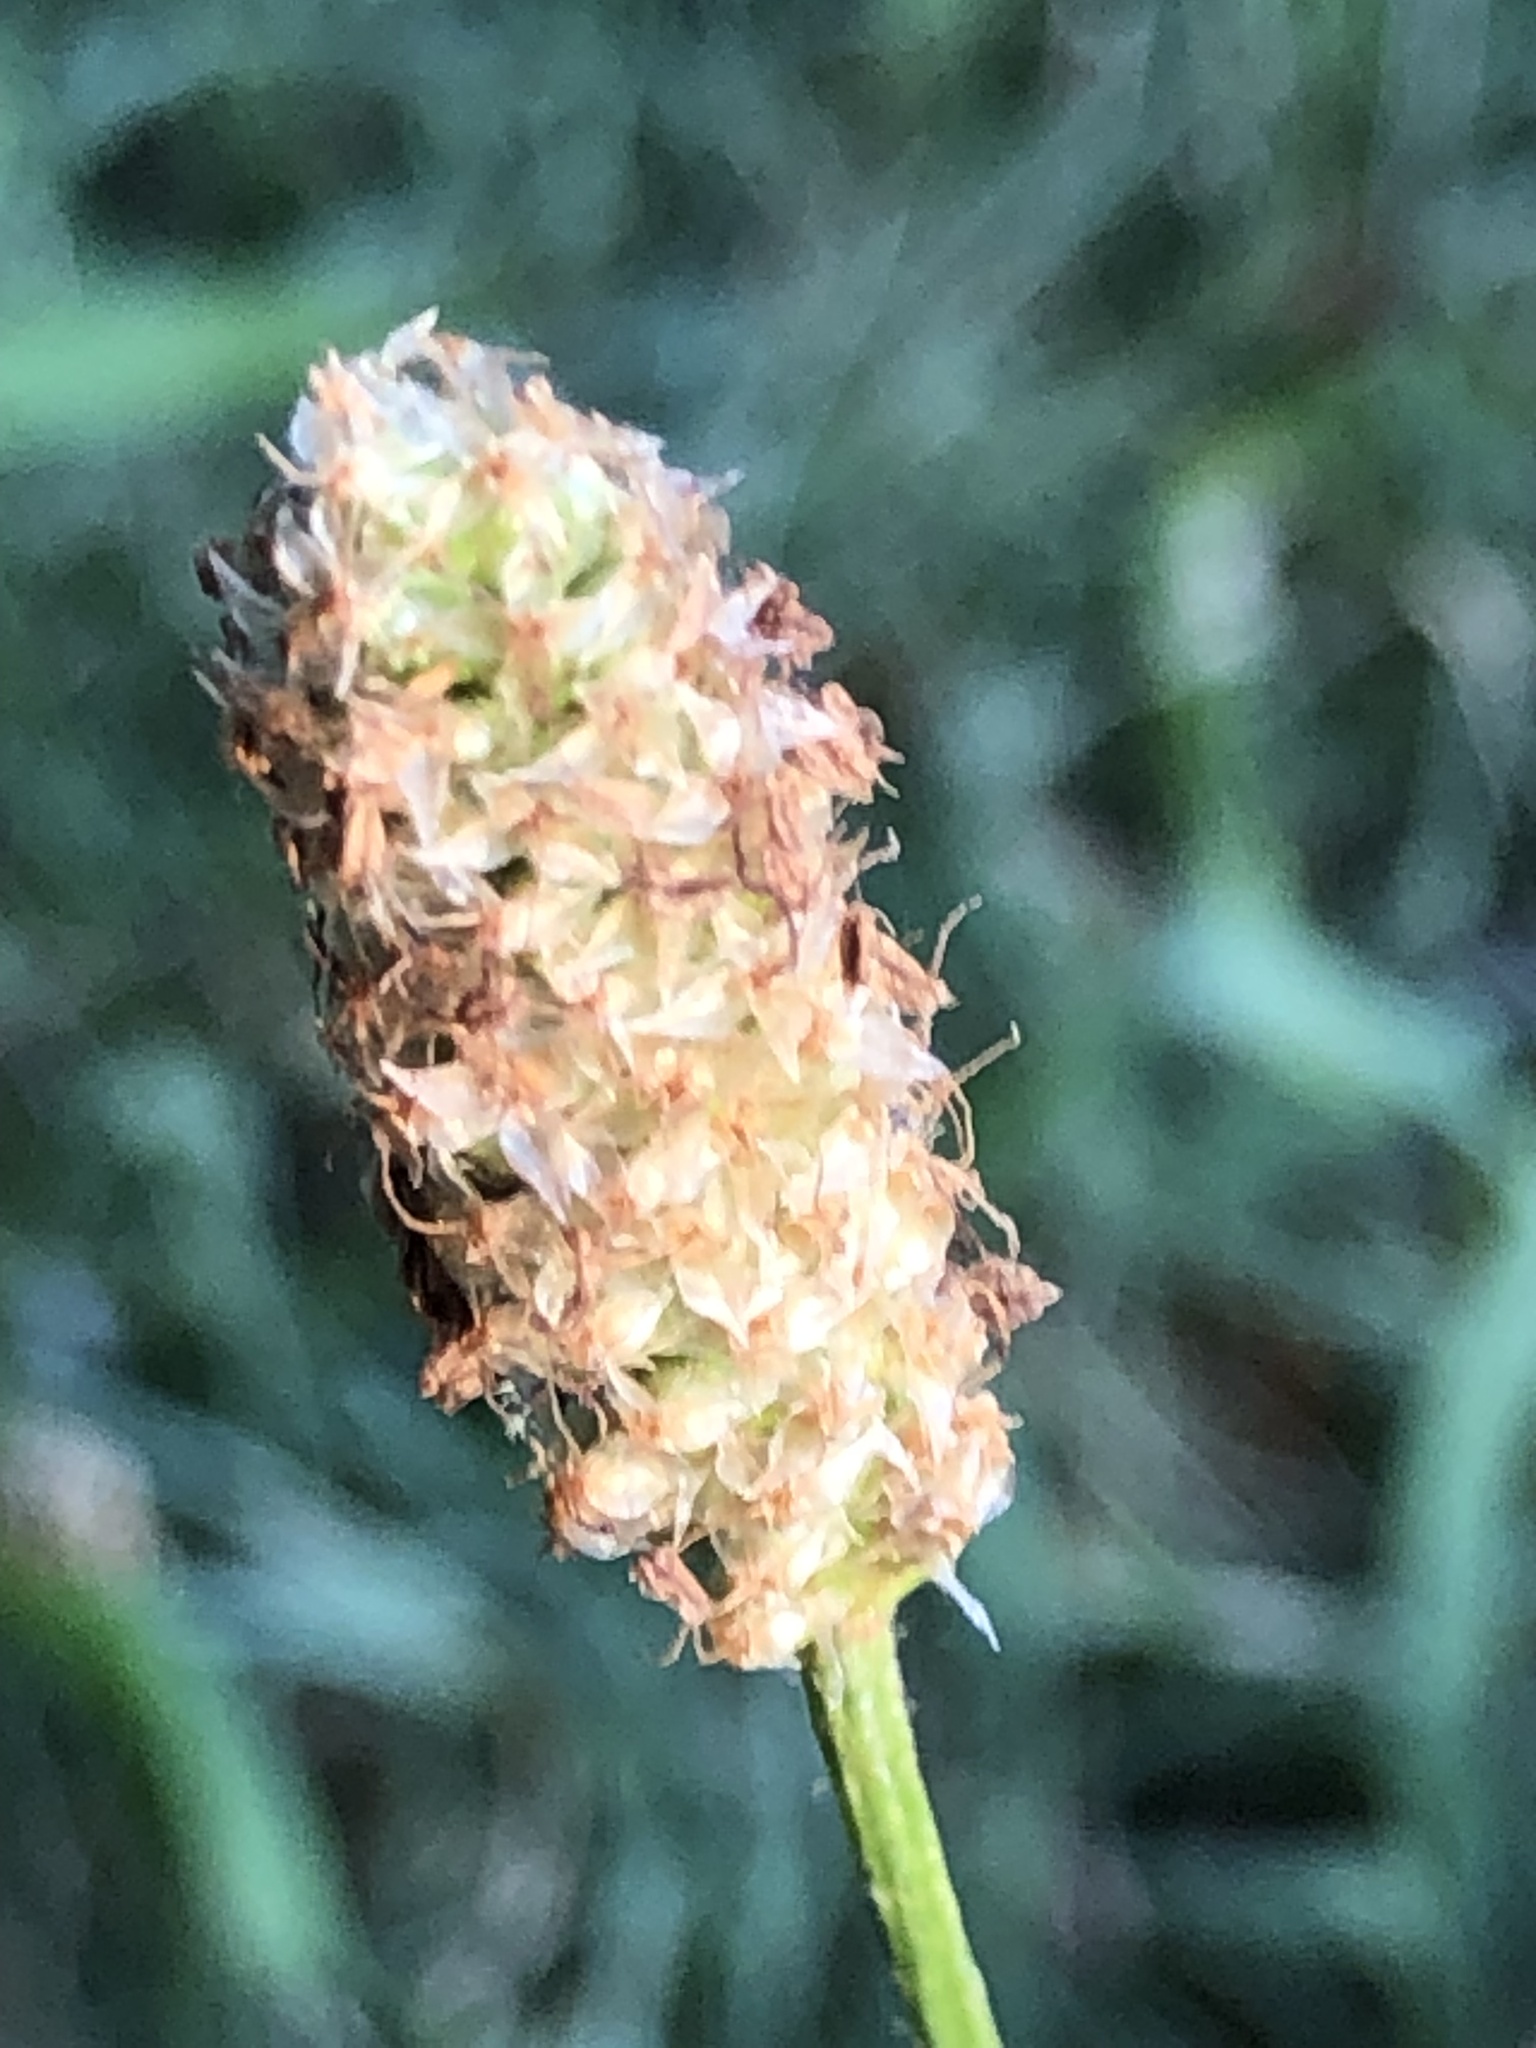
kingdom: Plantae
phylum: Tracheophyta
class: Magnoliopsida
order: Lamiales
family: Plantaginaceae
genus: Plantago
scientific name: Plantago lanceolata
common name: Ribwort plantain
